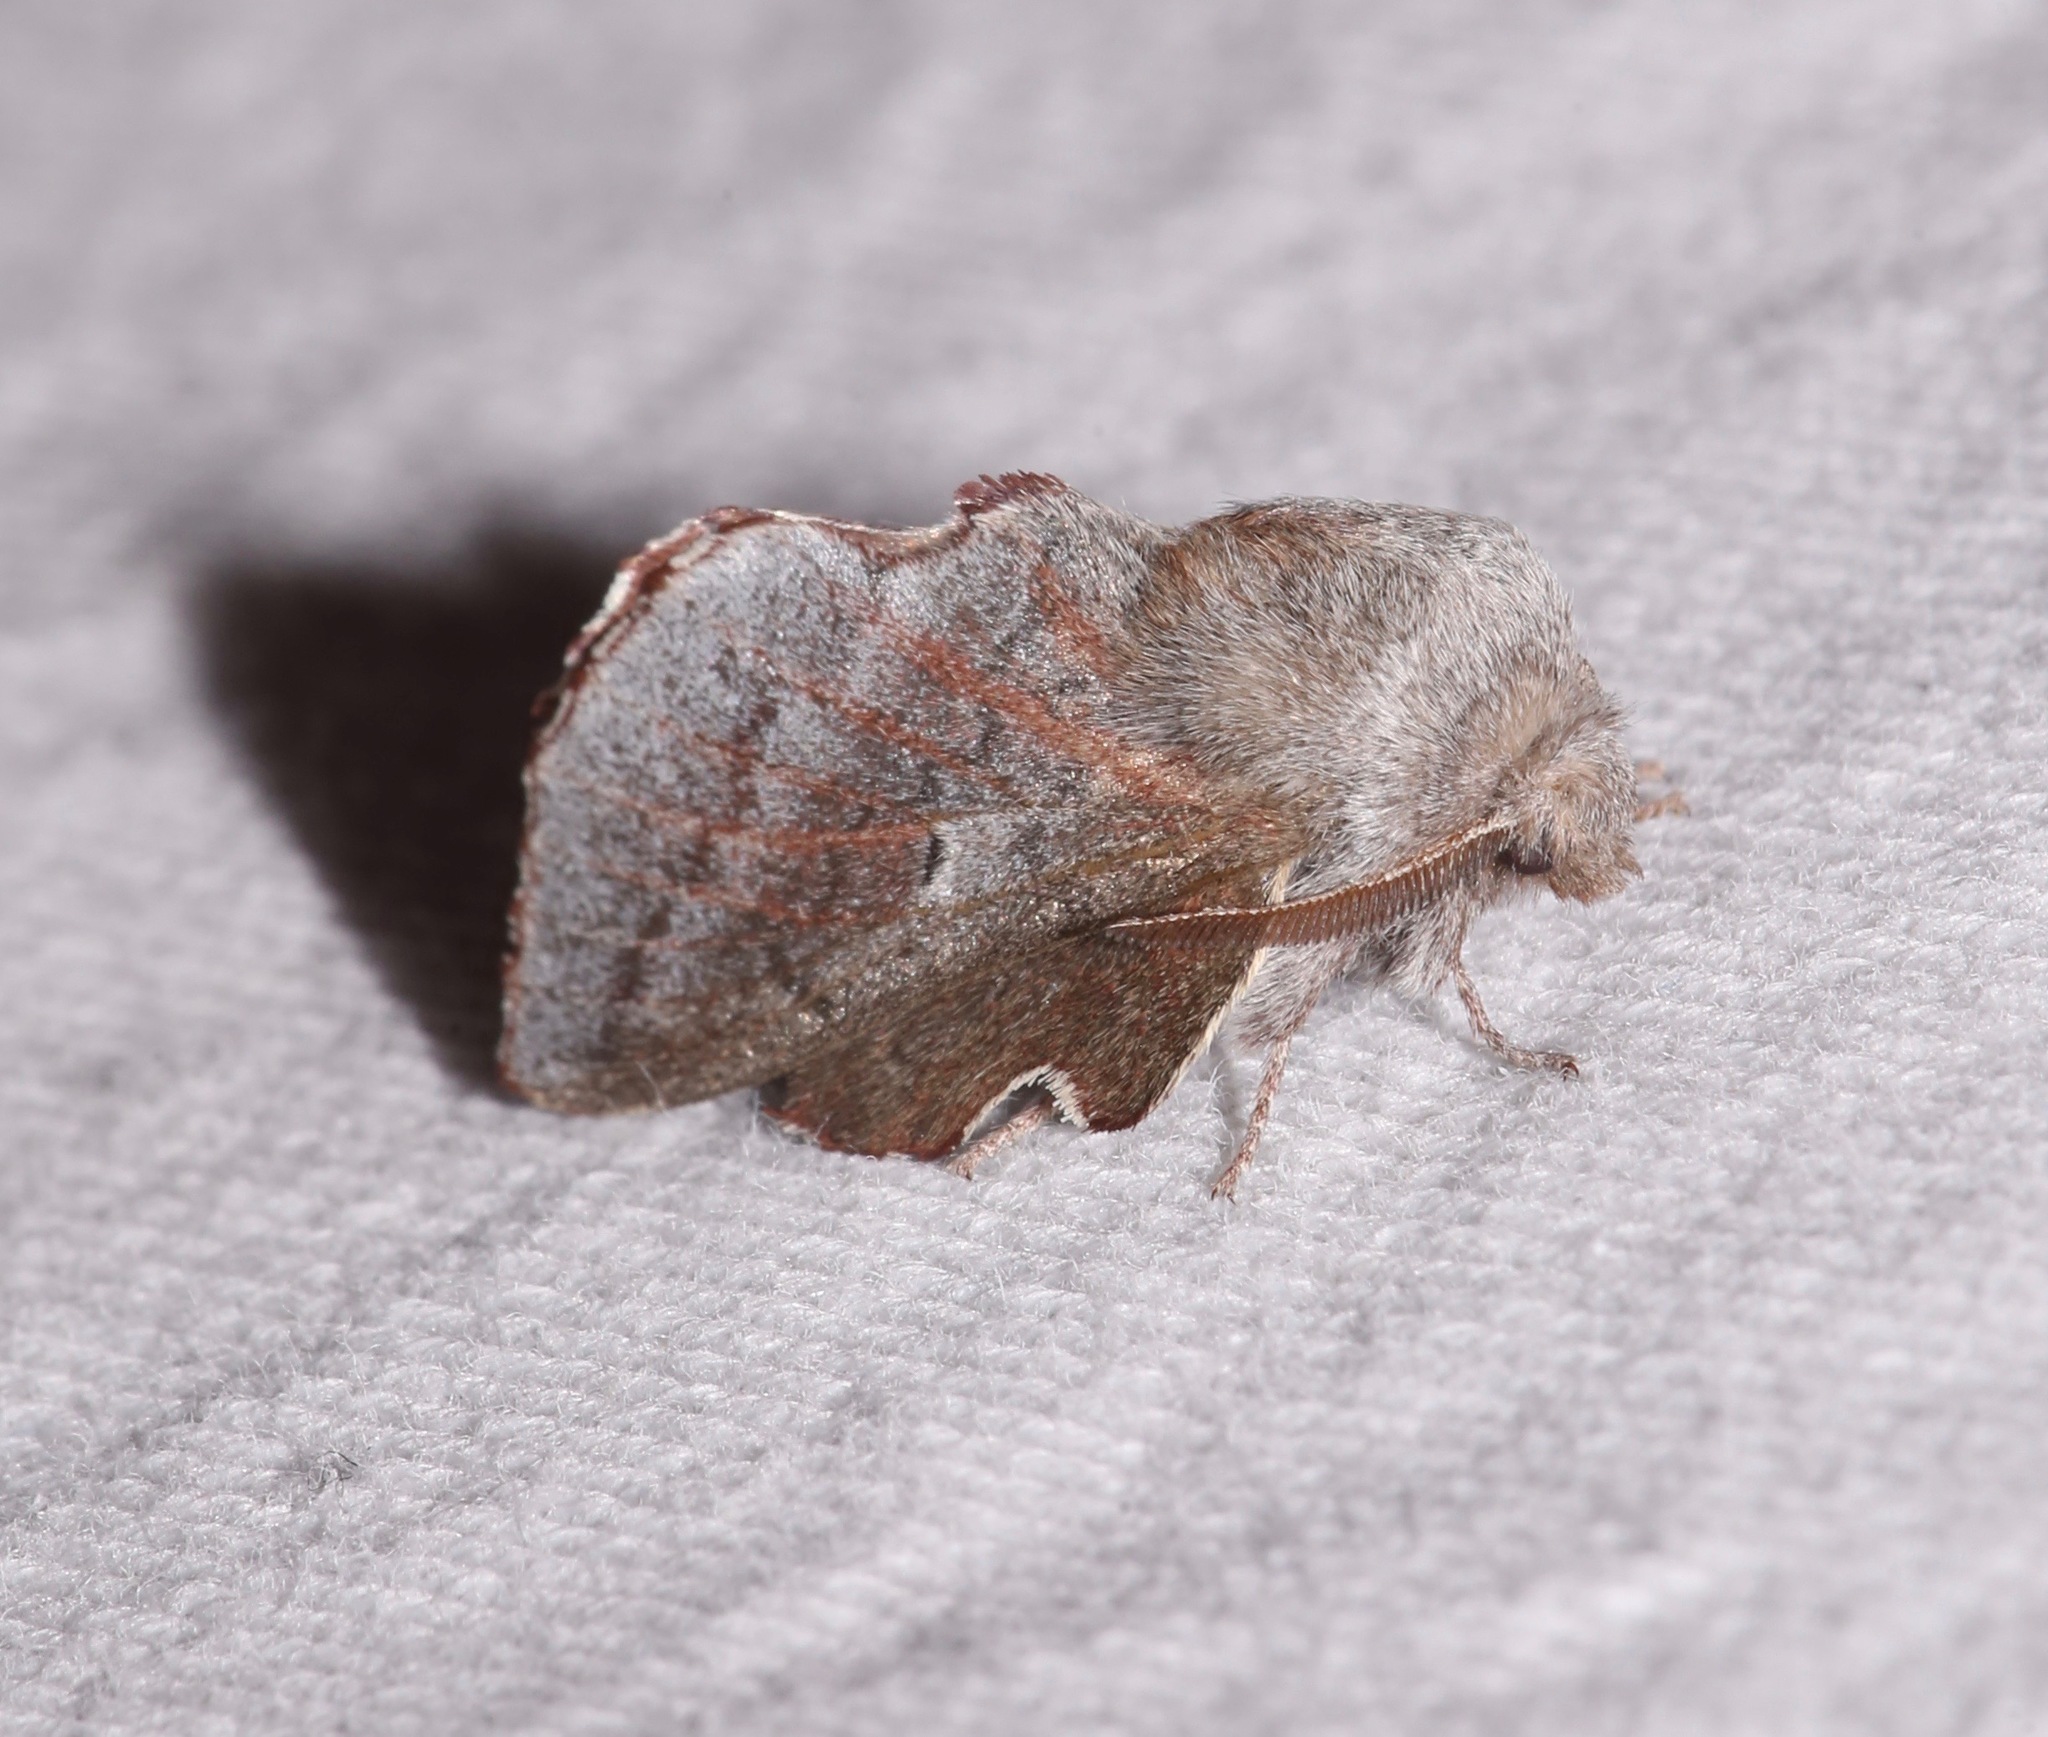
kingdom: Animalia
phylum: Arthropoda
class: Insecta
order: Lepidoptera
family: Lasiocampidae
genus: Phyllodesma
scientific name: Phyllodesma americana
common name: American lappet moth
